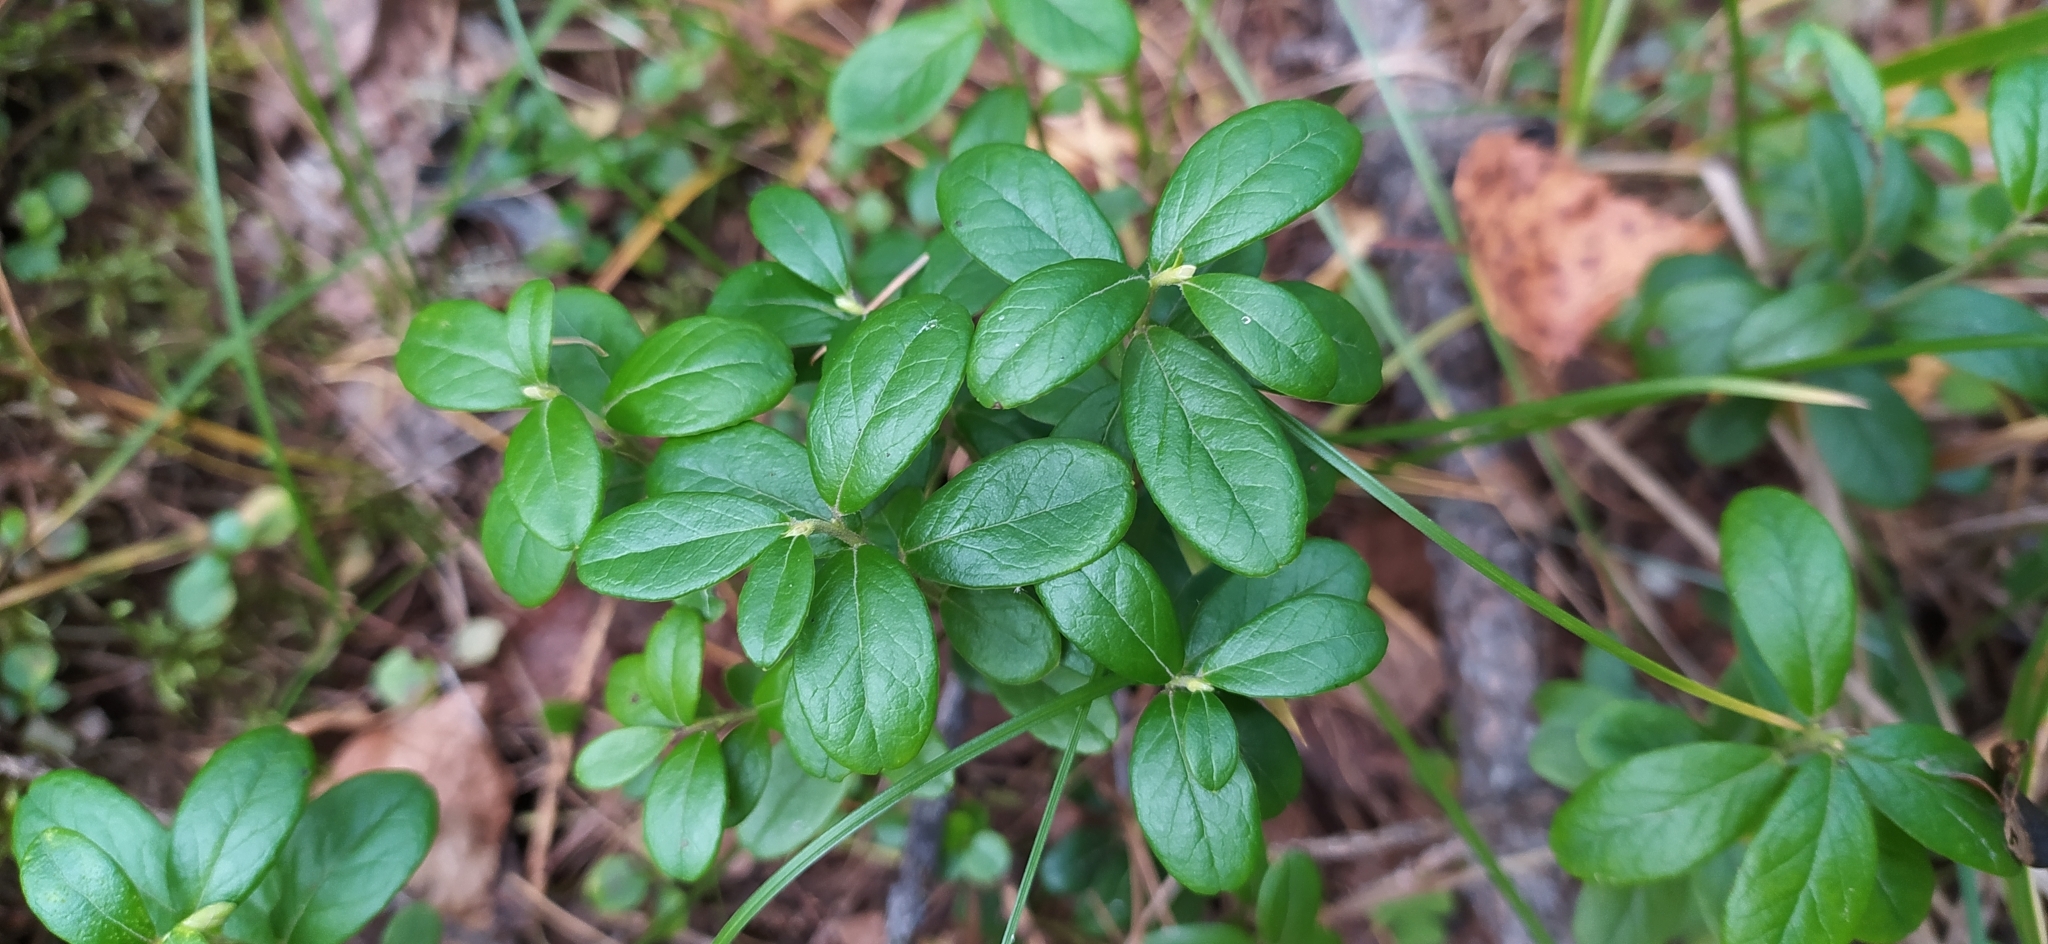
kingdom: Plantae
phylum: Tracheophyta
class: Magnoliopsida
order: Ericales
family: Ericaceae
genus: Vaccinium
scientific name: Vaccinium vitis-idaea
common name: Cowberry
